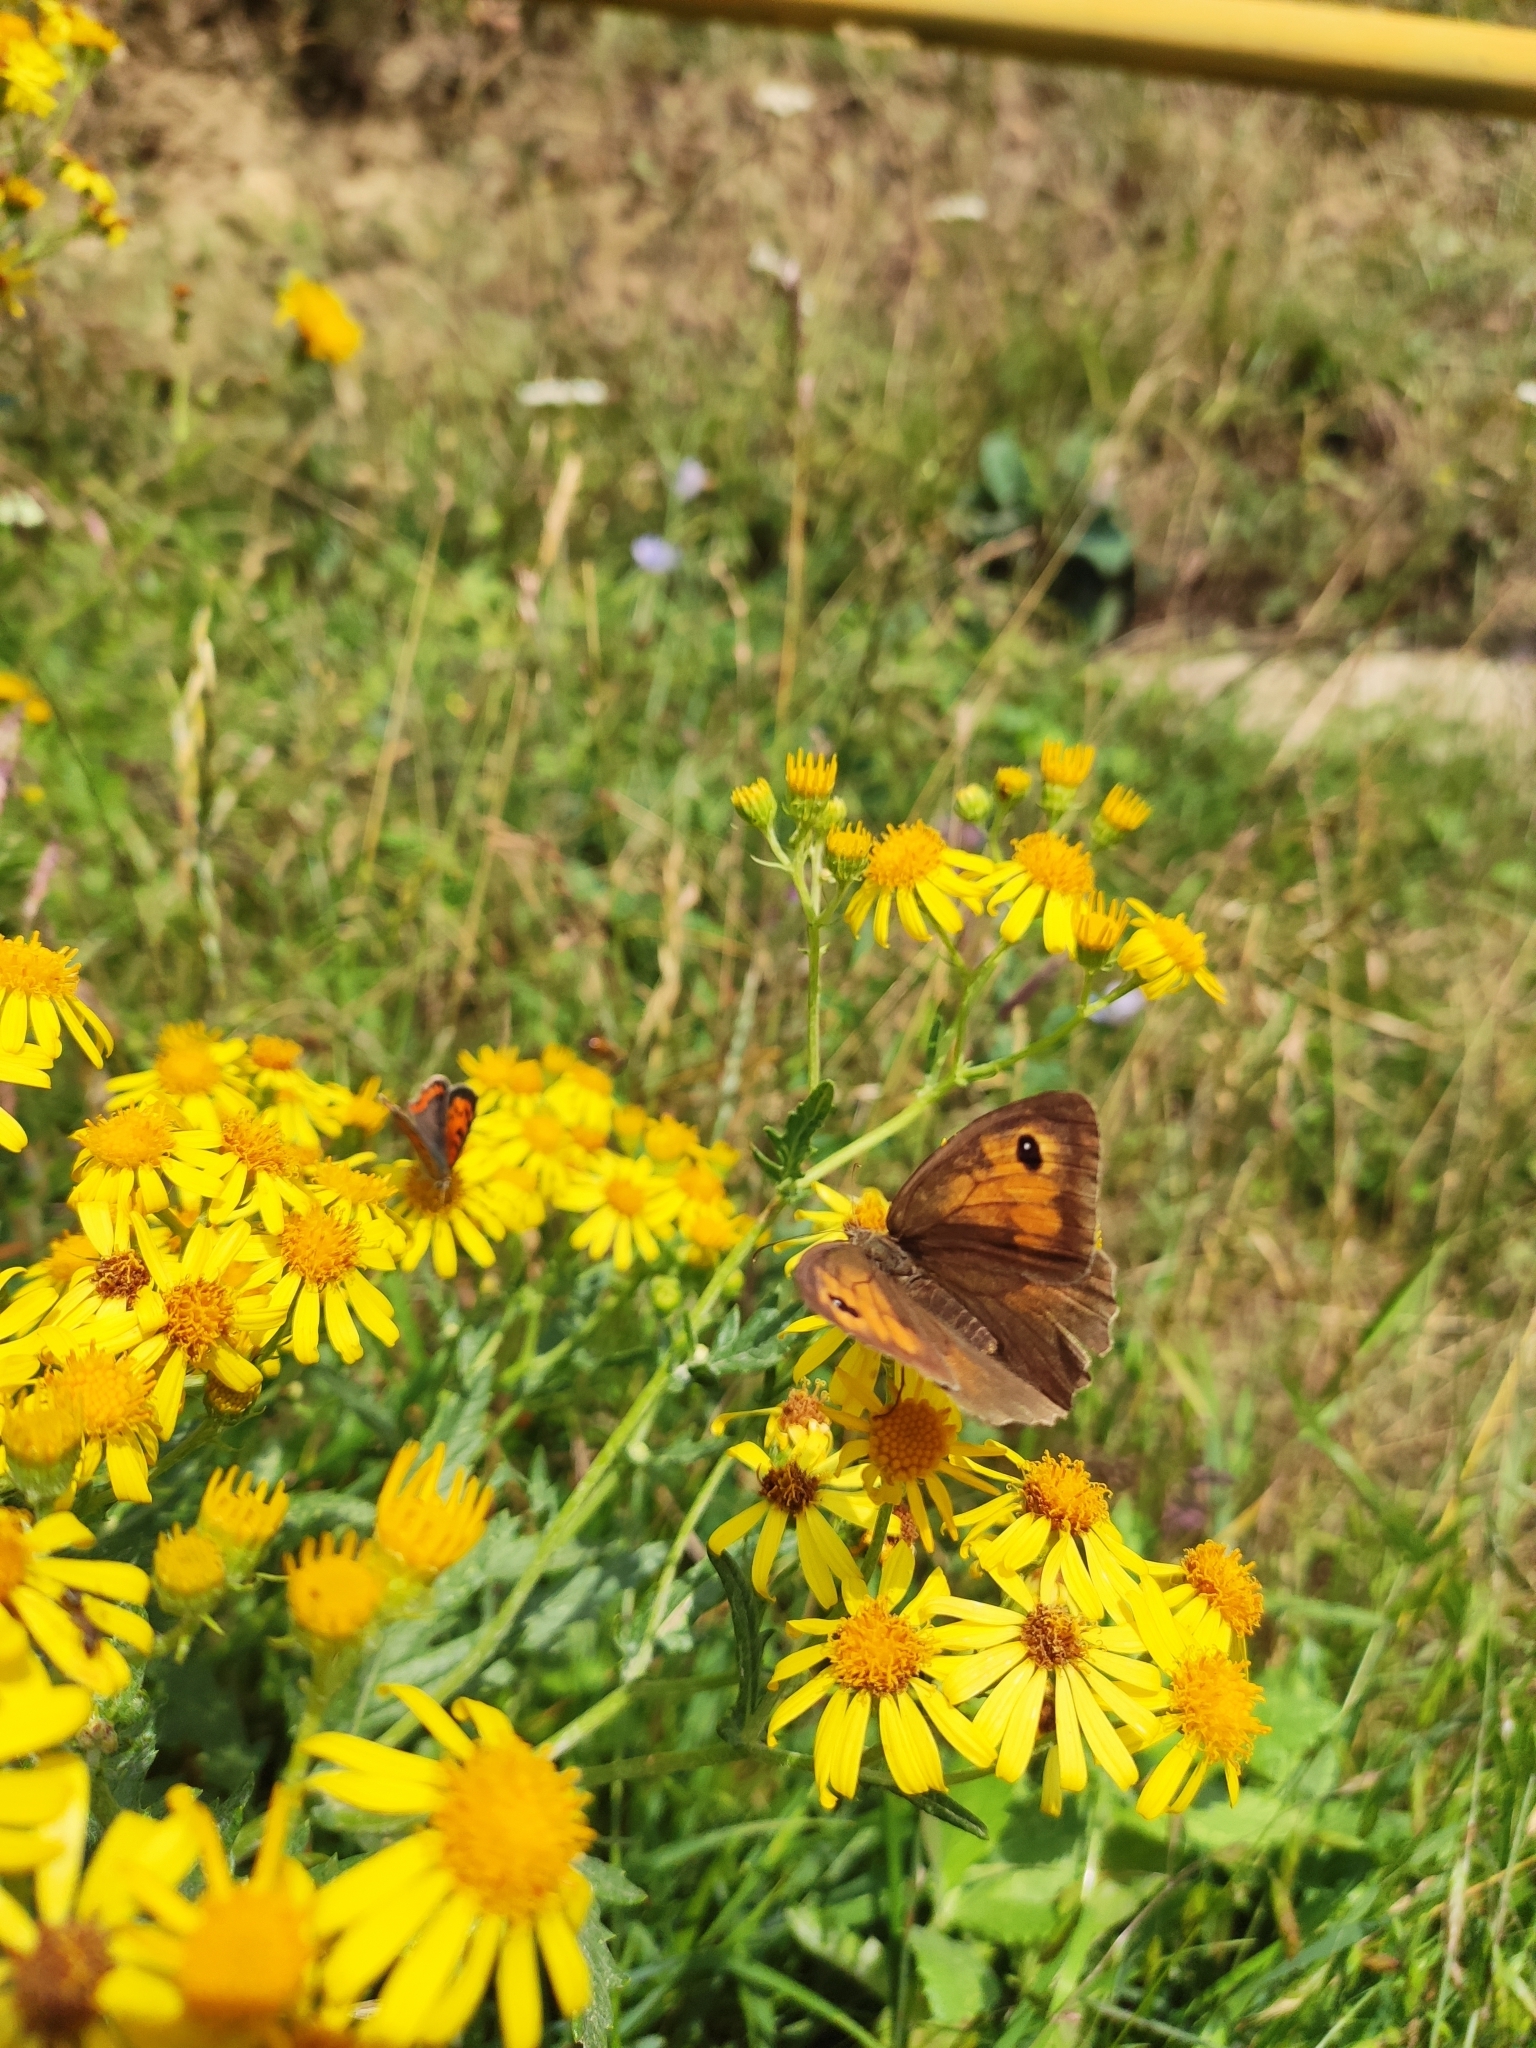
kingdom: Animalia
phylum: Arthropoda
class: Insecta
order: Lepidoptera
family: Nymphalidae
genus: Maniola
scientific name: Maniola jurtina
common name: Meadow brown
